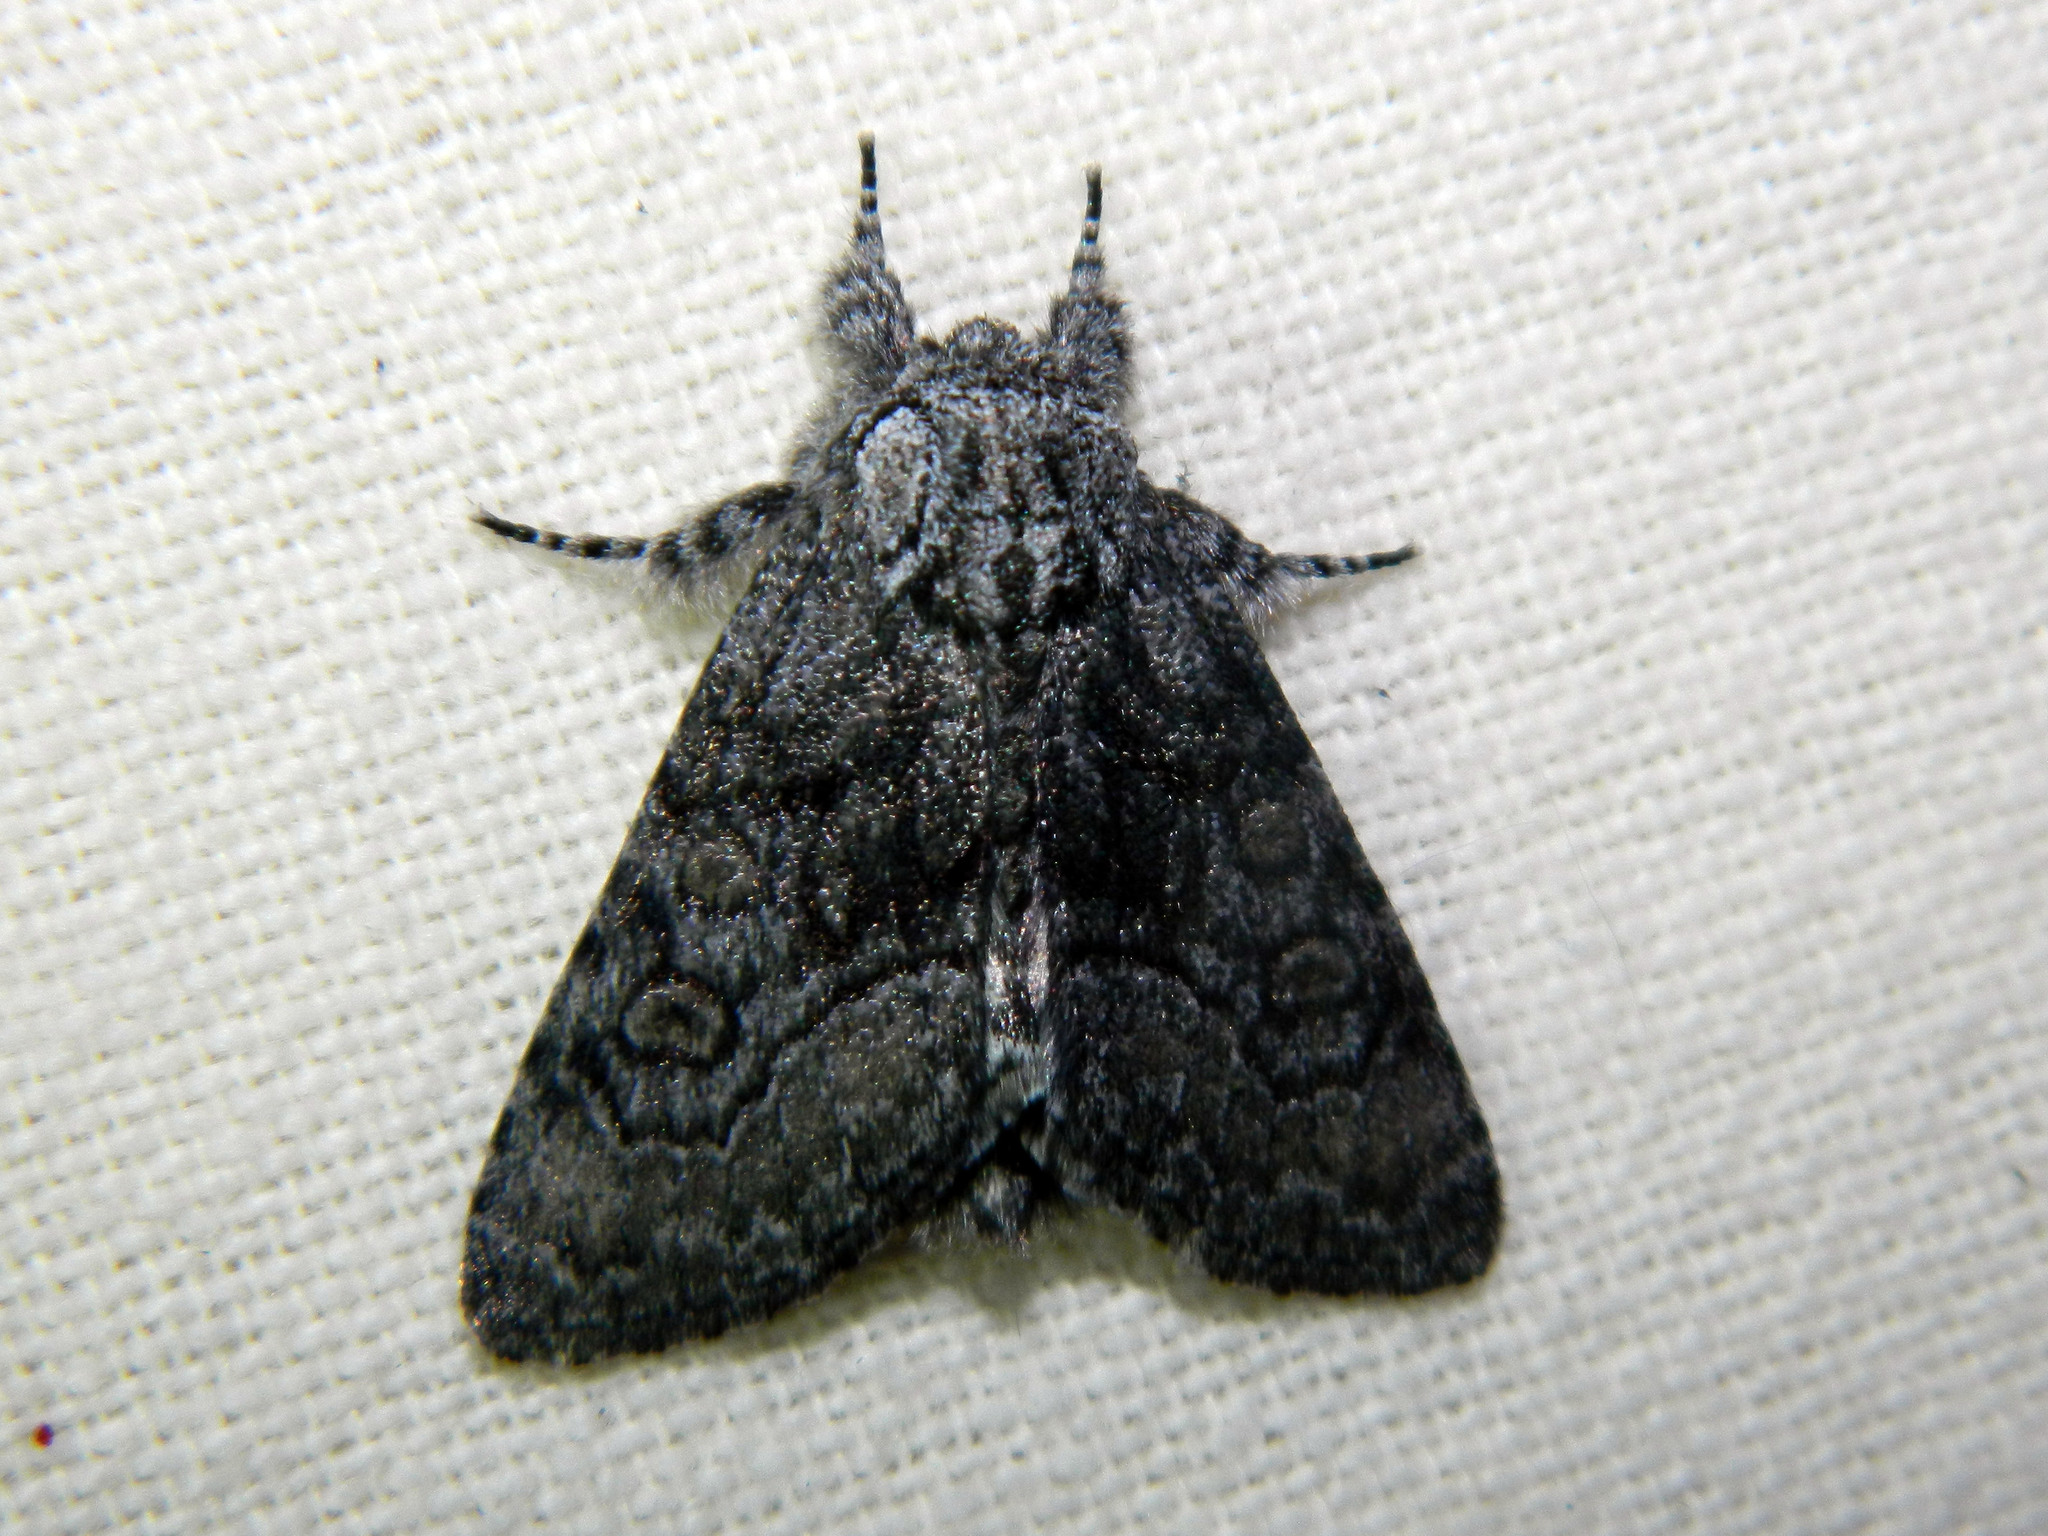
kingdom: Animalia
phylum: Arthropoda
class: Insecta
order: Lepidoptera
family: Noctuidae
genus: Raphia
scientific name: Raphia frater
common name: Brother
